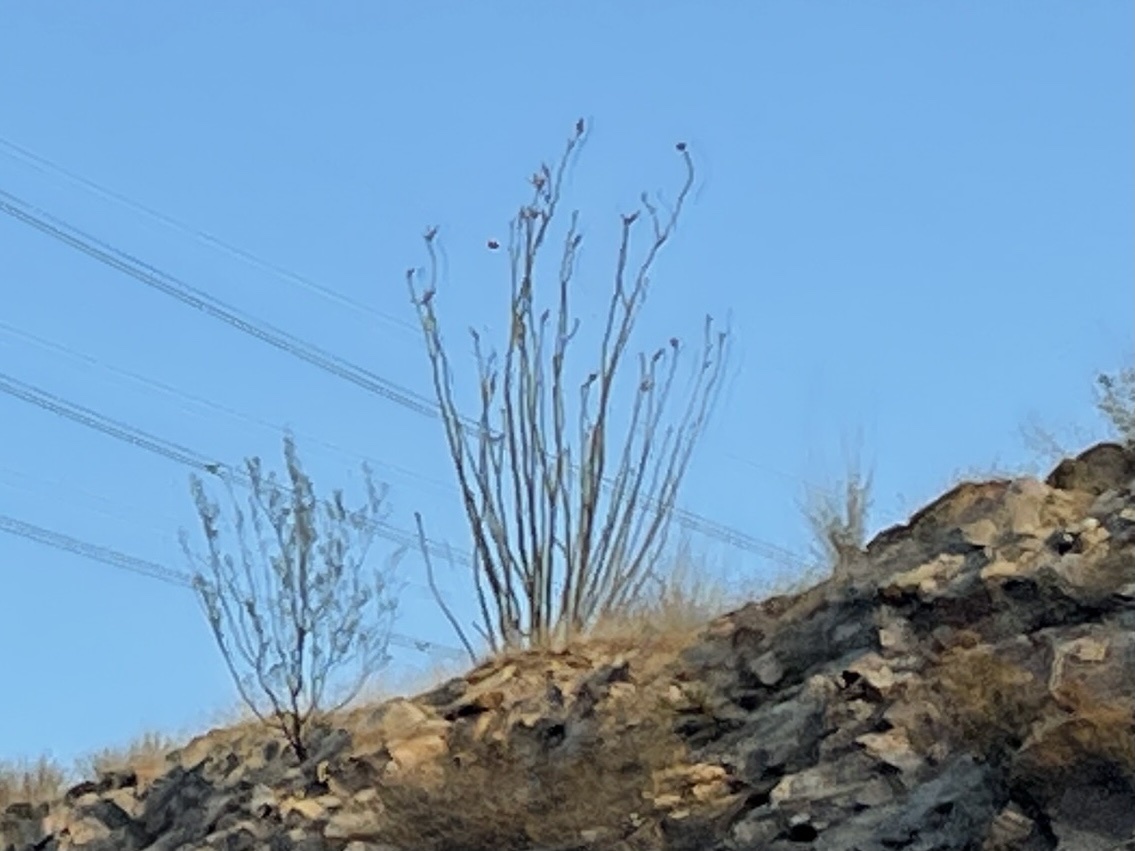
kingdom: Plantae
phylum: Tracheophyta
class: Magnoliopsida
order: Ericales
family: Fouquieriaceae
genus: Fouquieria
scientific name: Fouquieria splendens
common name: Vine-cactus
